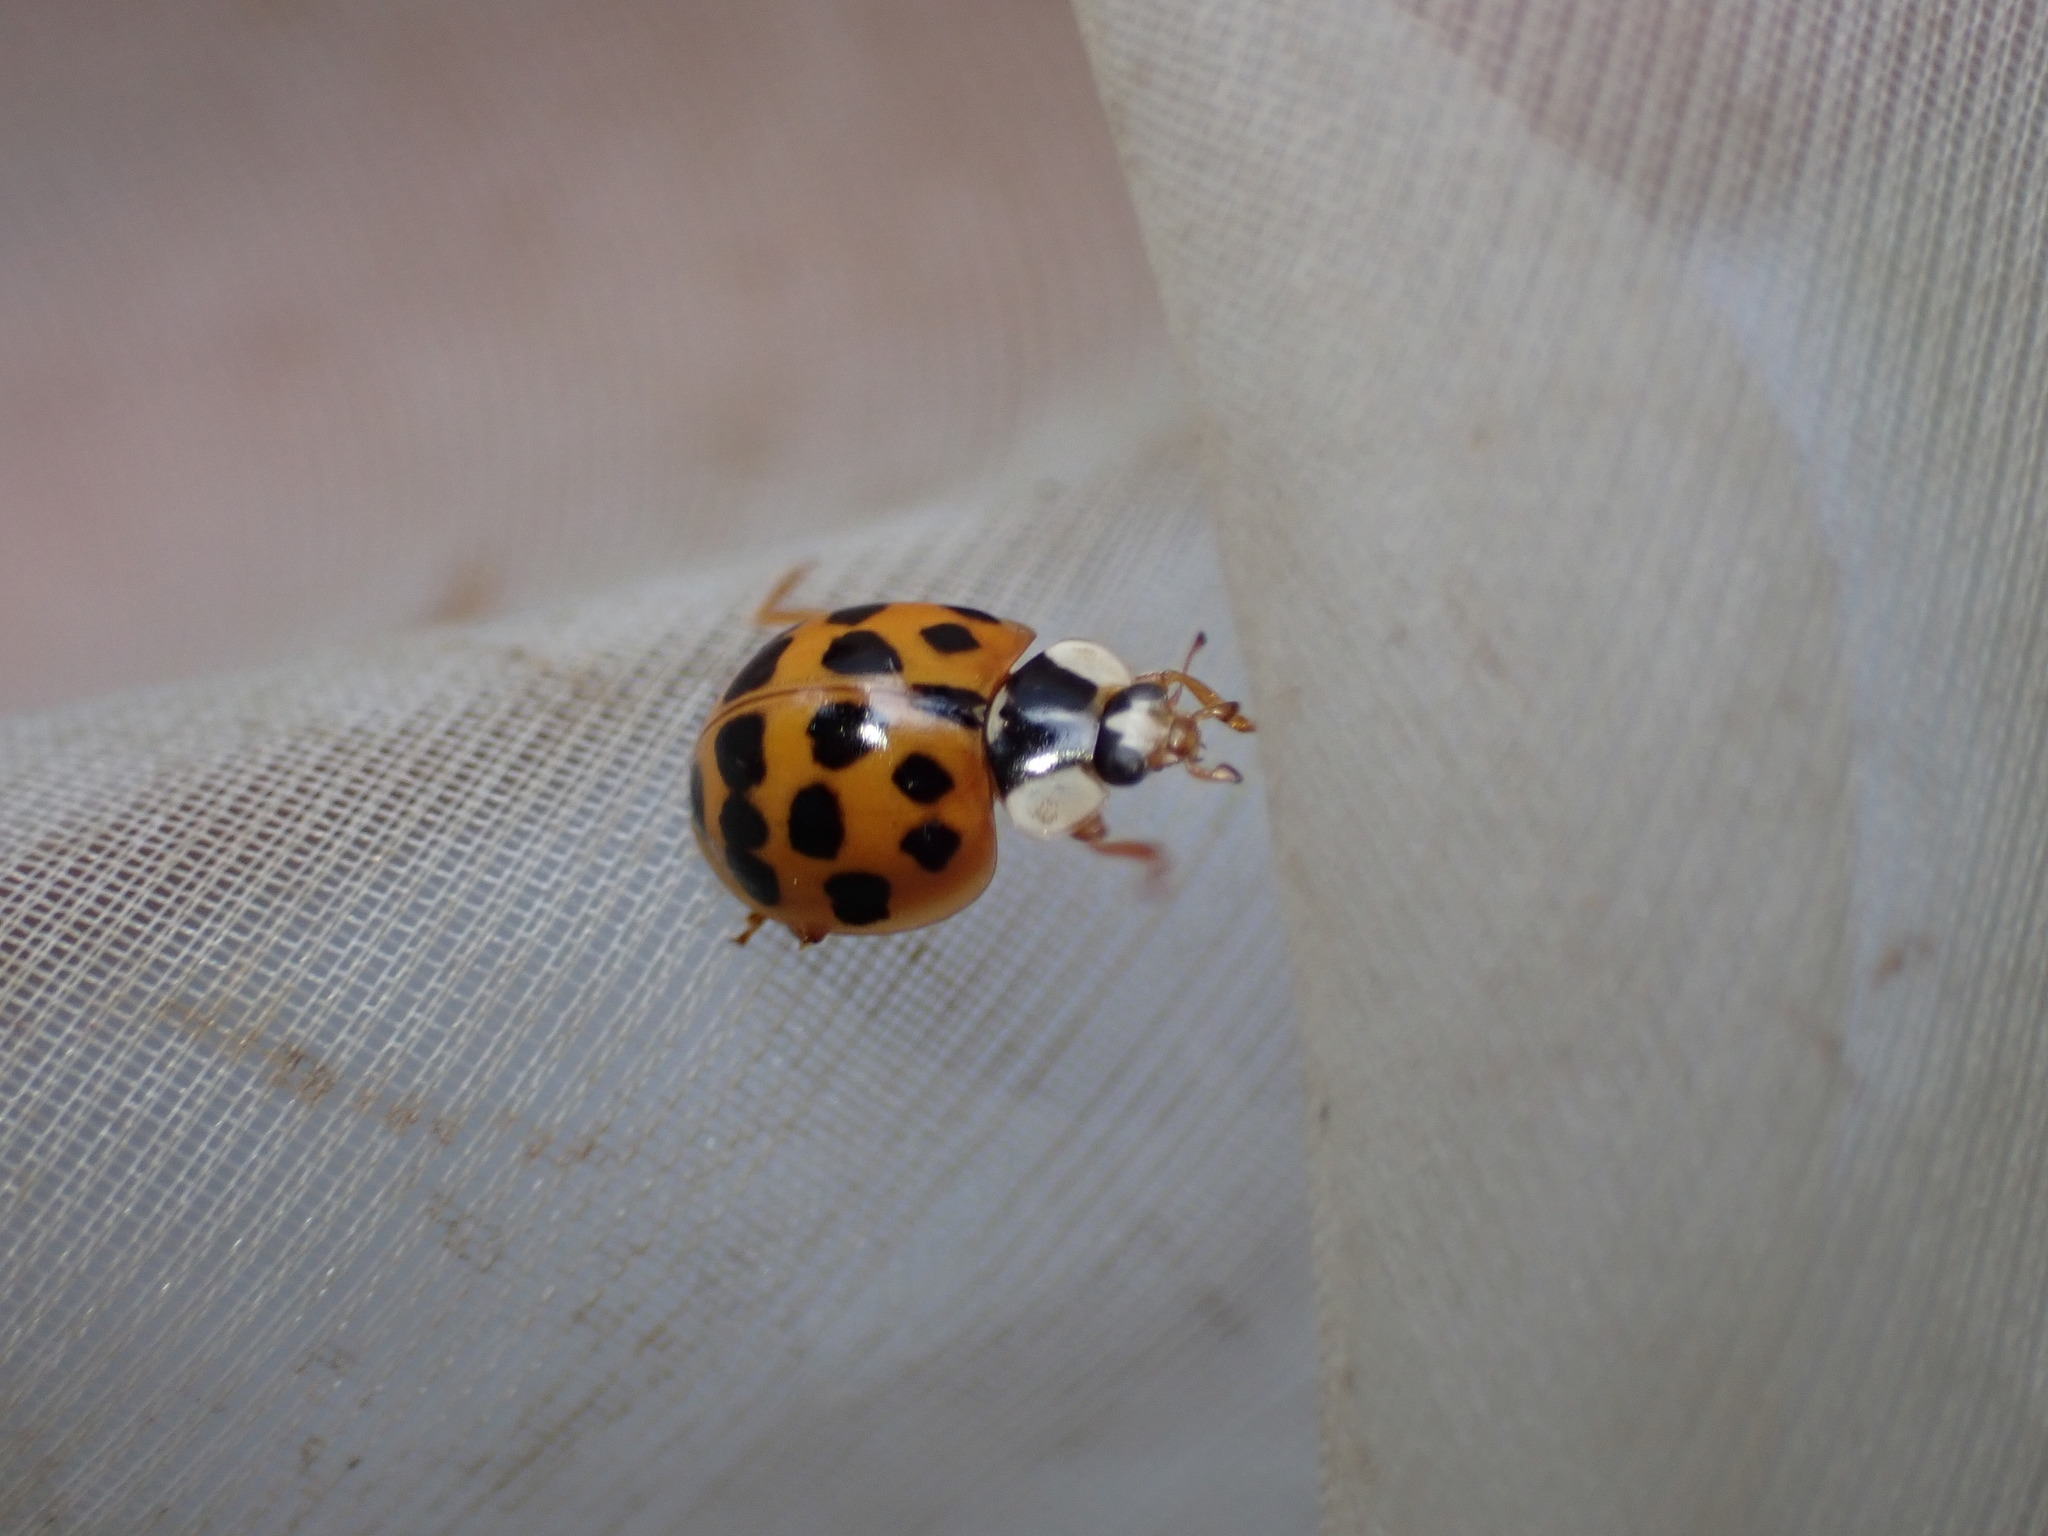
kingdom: Animalia
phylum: Arthropoda
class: Insecta
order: Coleoptera
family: Coccinellidae
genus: Harmonia
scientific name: Harmonia axyridis
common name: Harlequin ladybird
